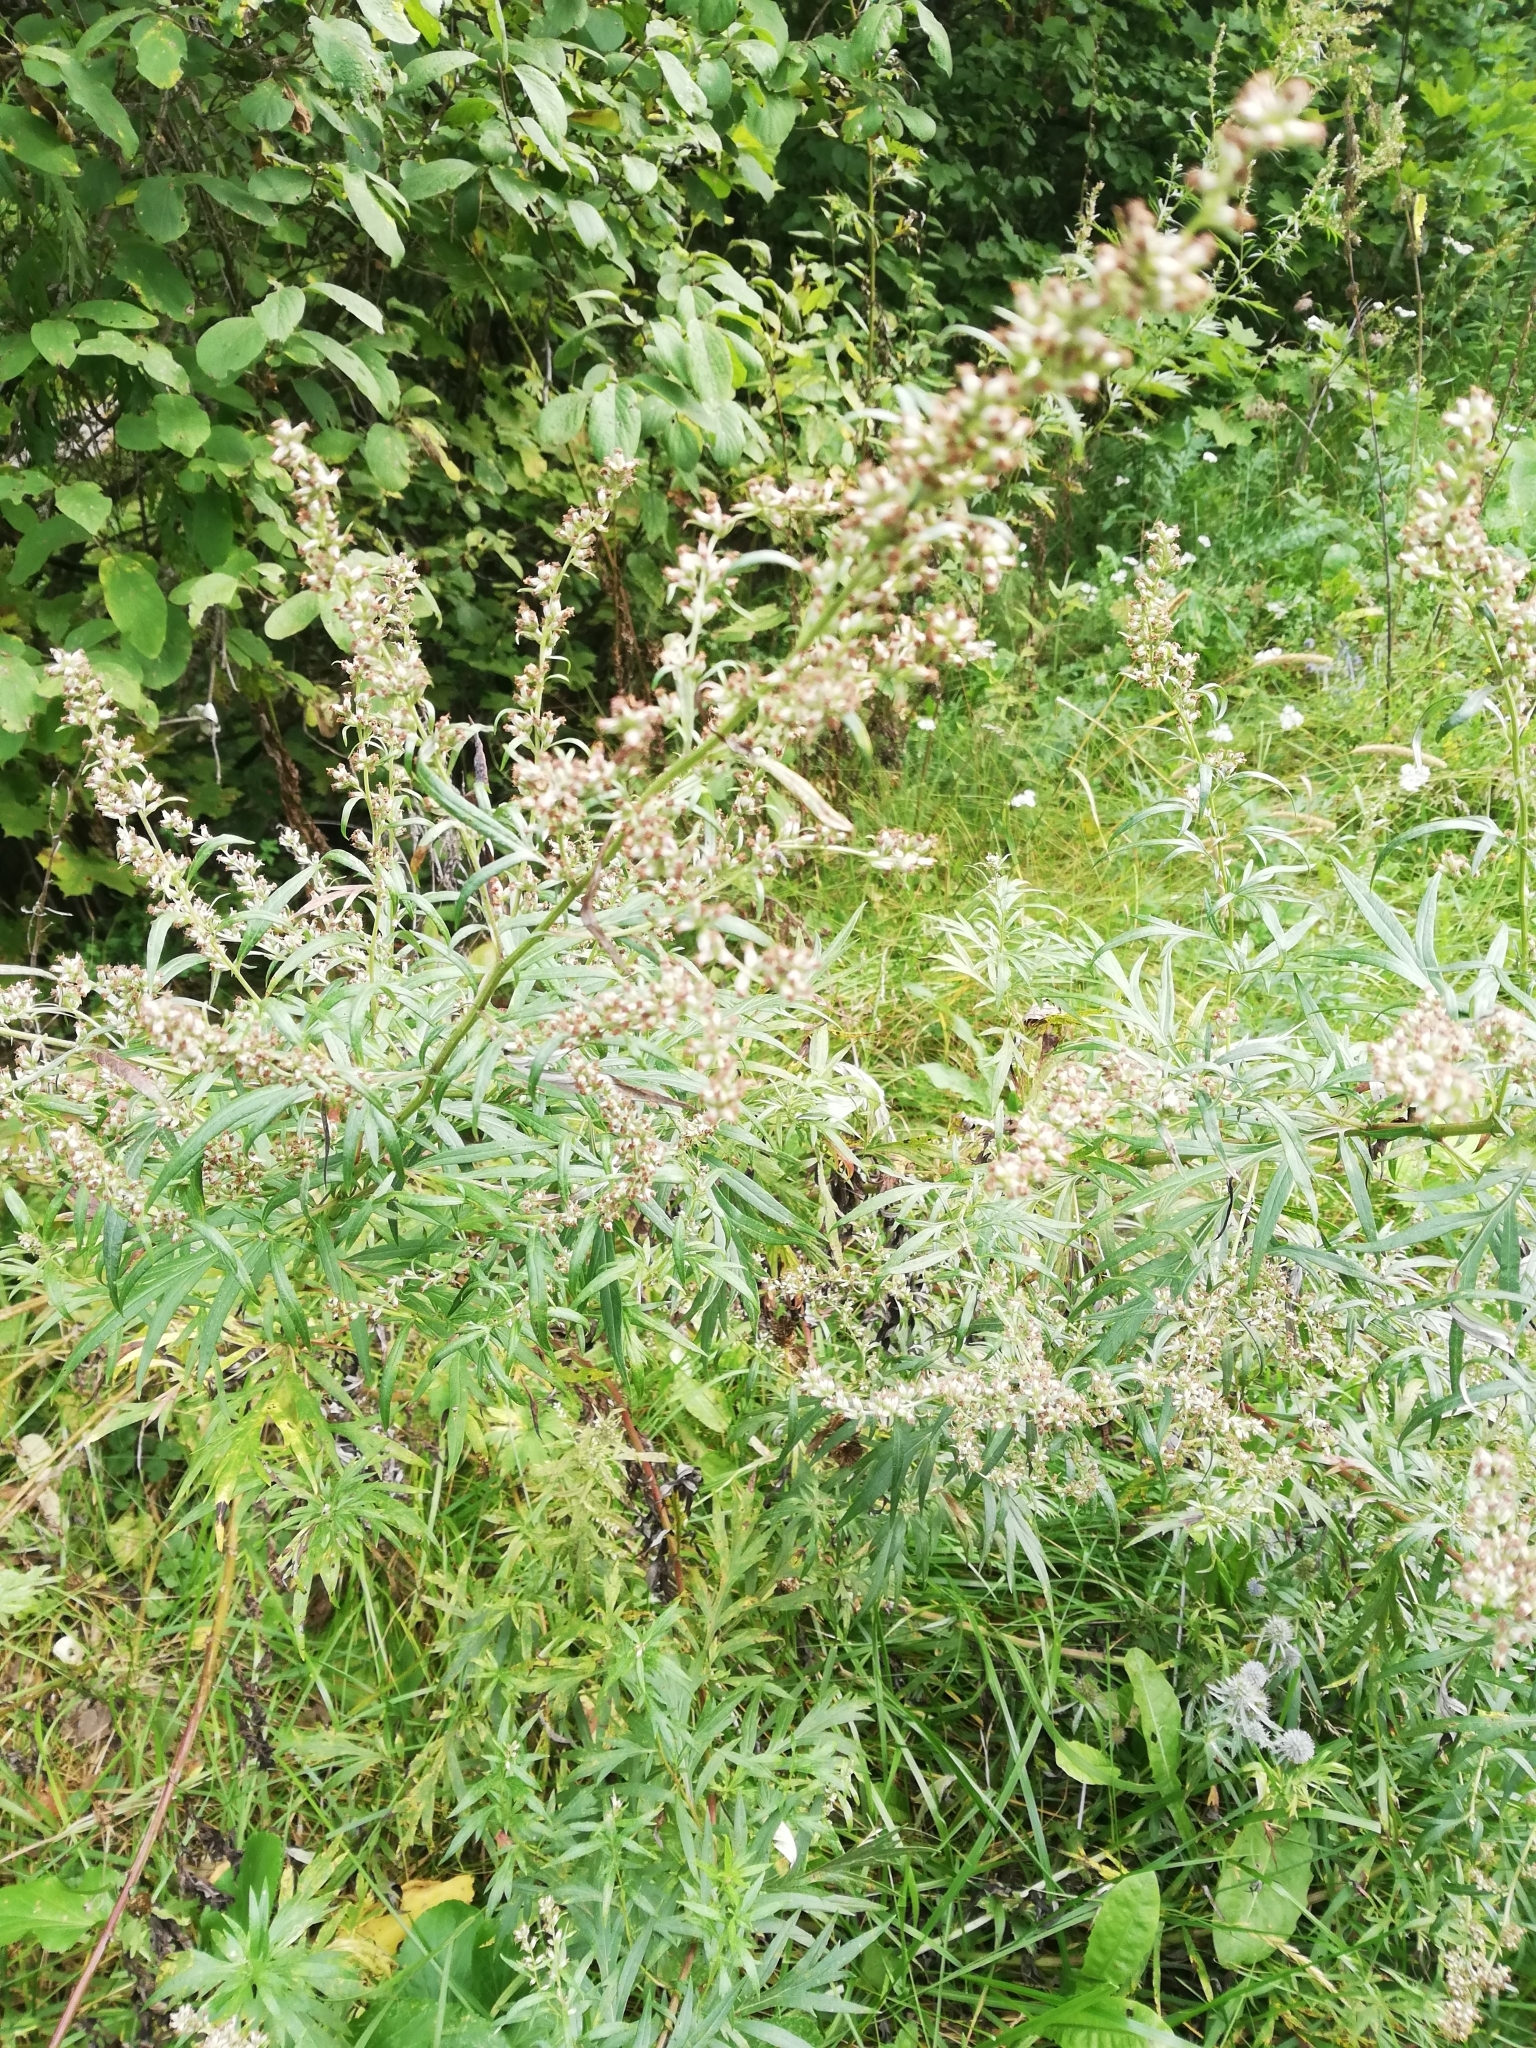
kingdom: Plantae
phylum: Tracheophyta
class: Magnoliopsida
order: Asterales
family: Asteraceae
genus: Artemisia
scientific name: Artemisia vulgaris
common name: Mugwort
